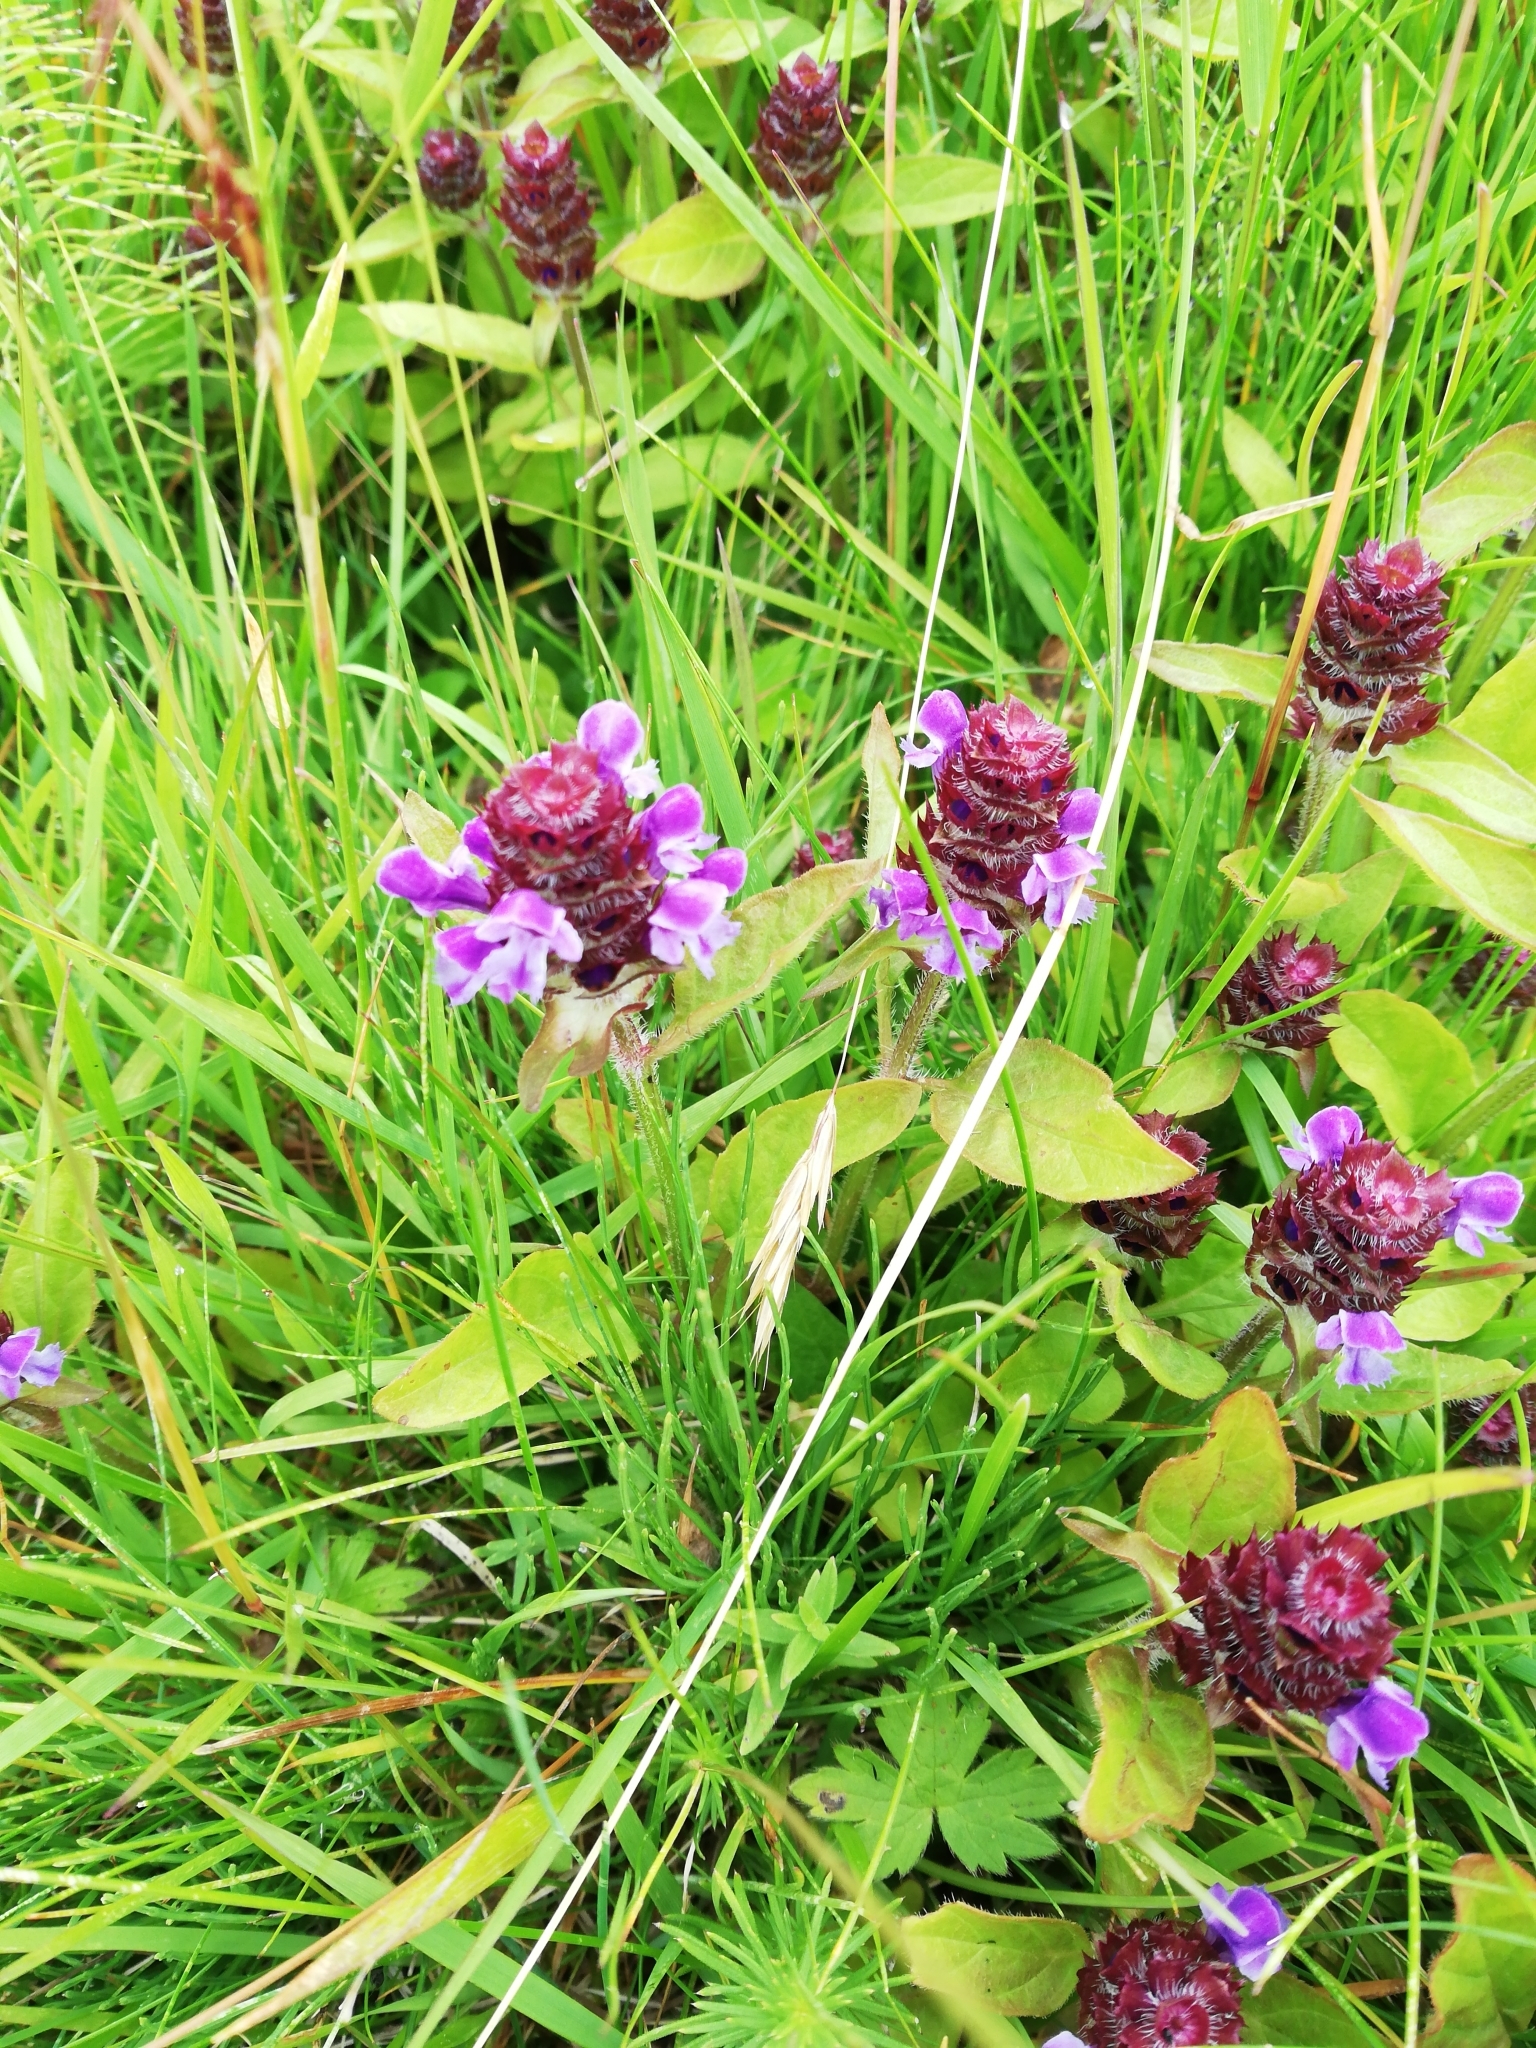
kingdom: Plantae
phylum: Tracheophyta
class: Magnoliopsida
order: Lamiales
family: Lamiaceae
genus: Prunella
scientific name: Prunella vulgaris
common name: Heal-all
